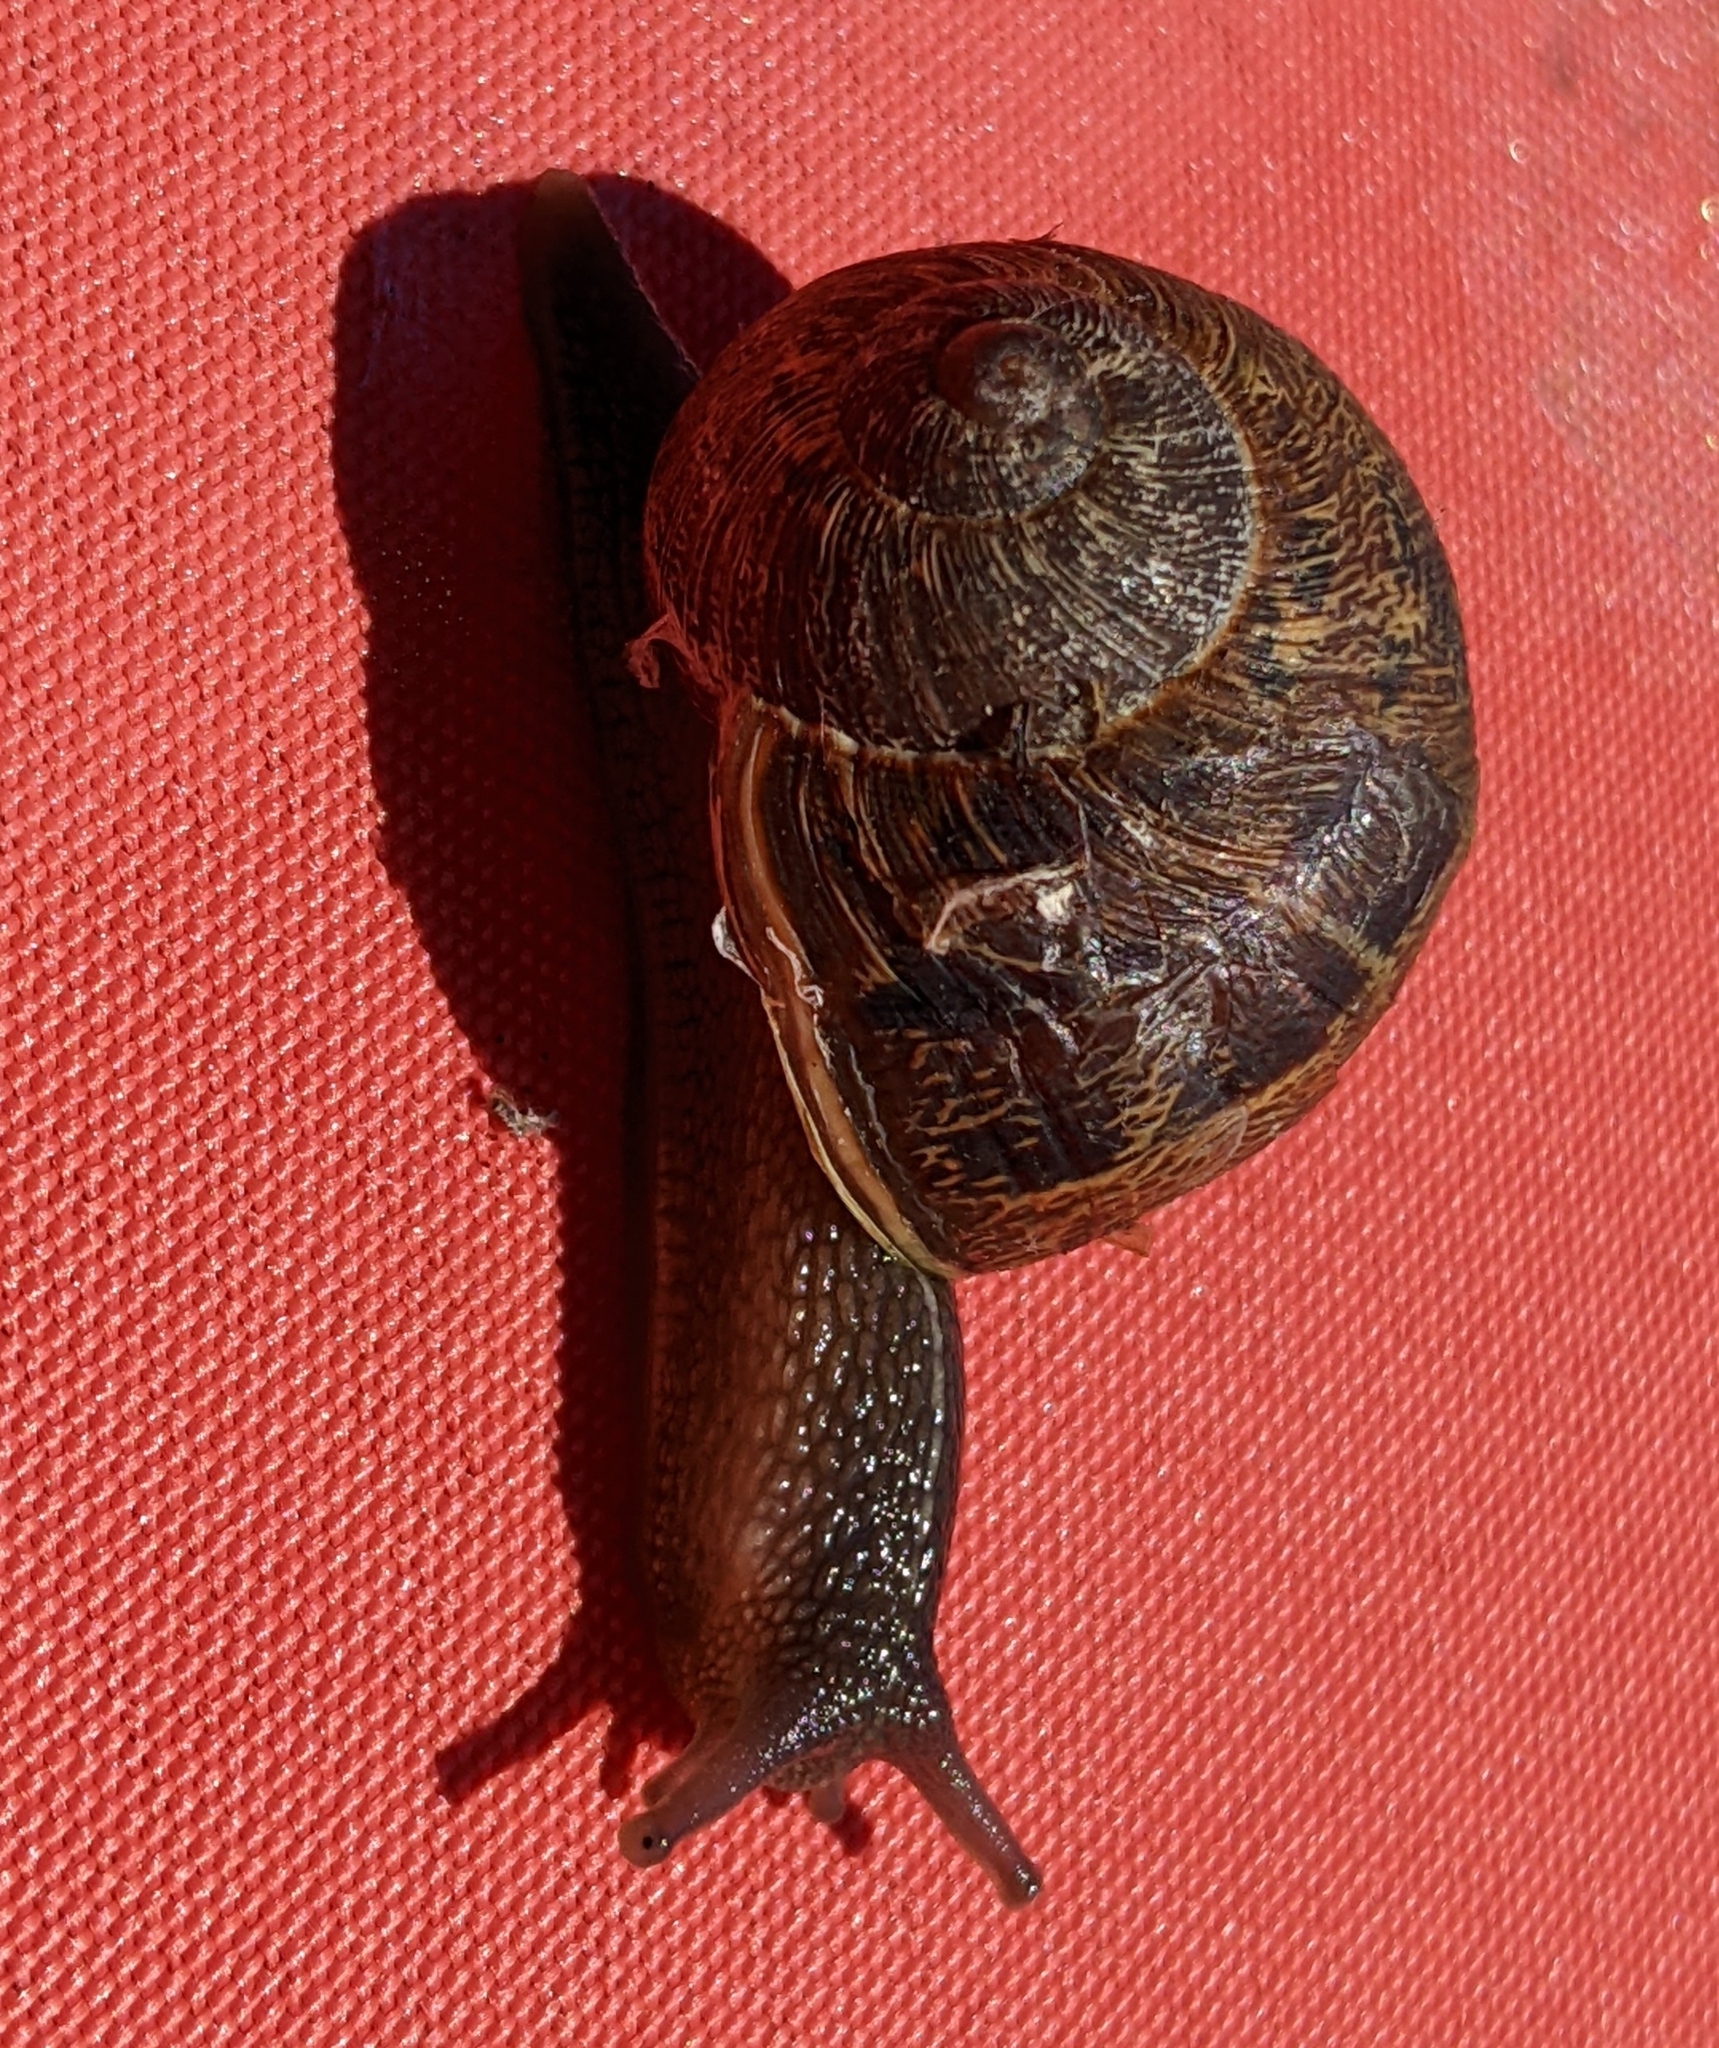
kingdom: Animalia
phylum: Mollusca
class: Gastropoda
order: Stylommatophora
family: Helicidae
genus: Cornu
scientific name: Cornu aspersum
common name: Brown garden snail
